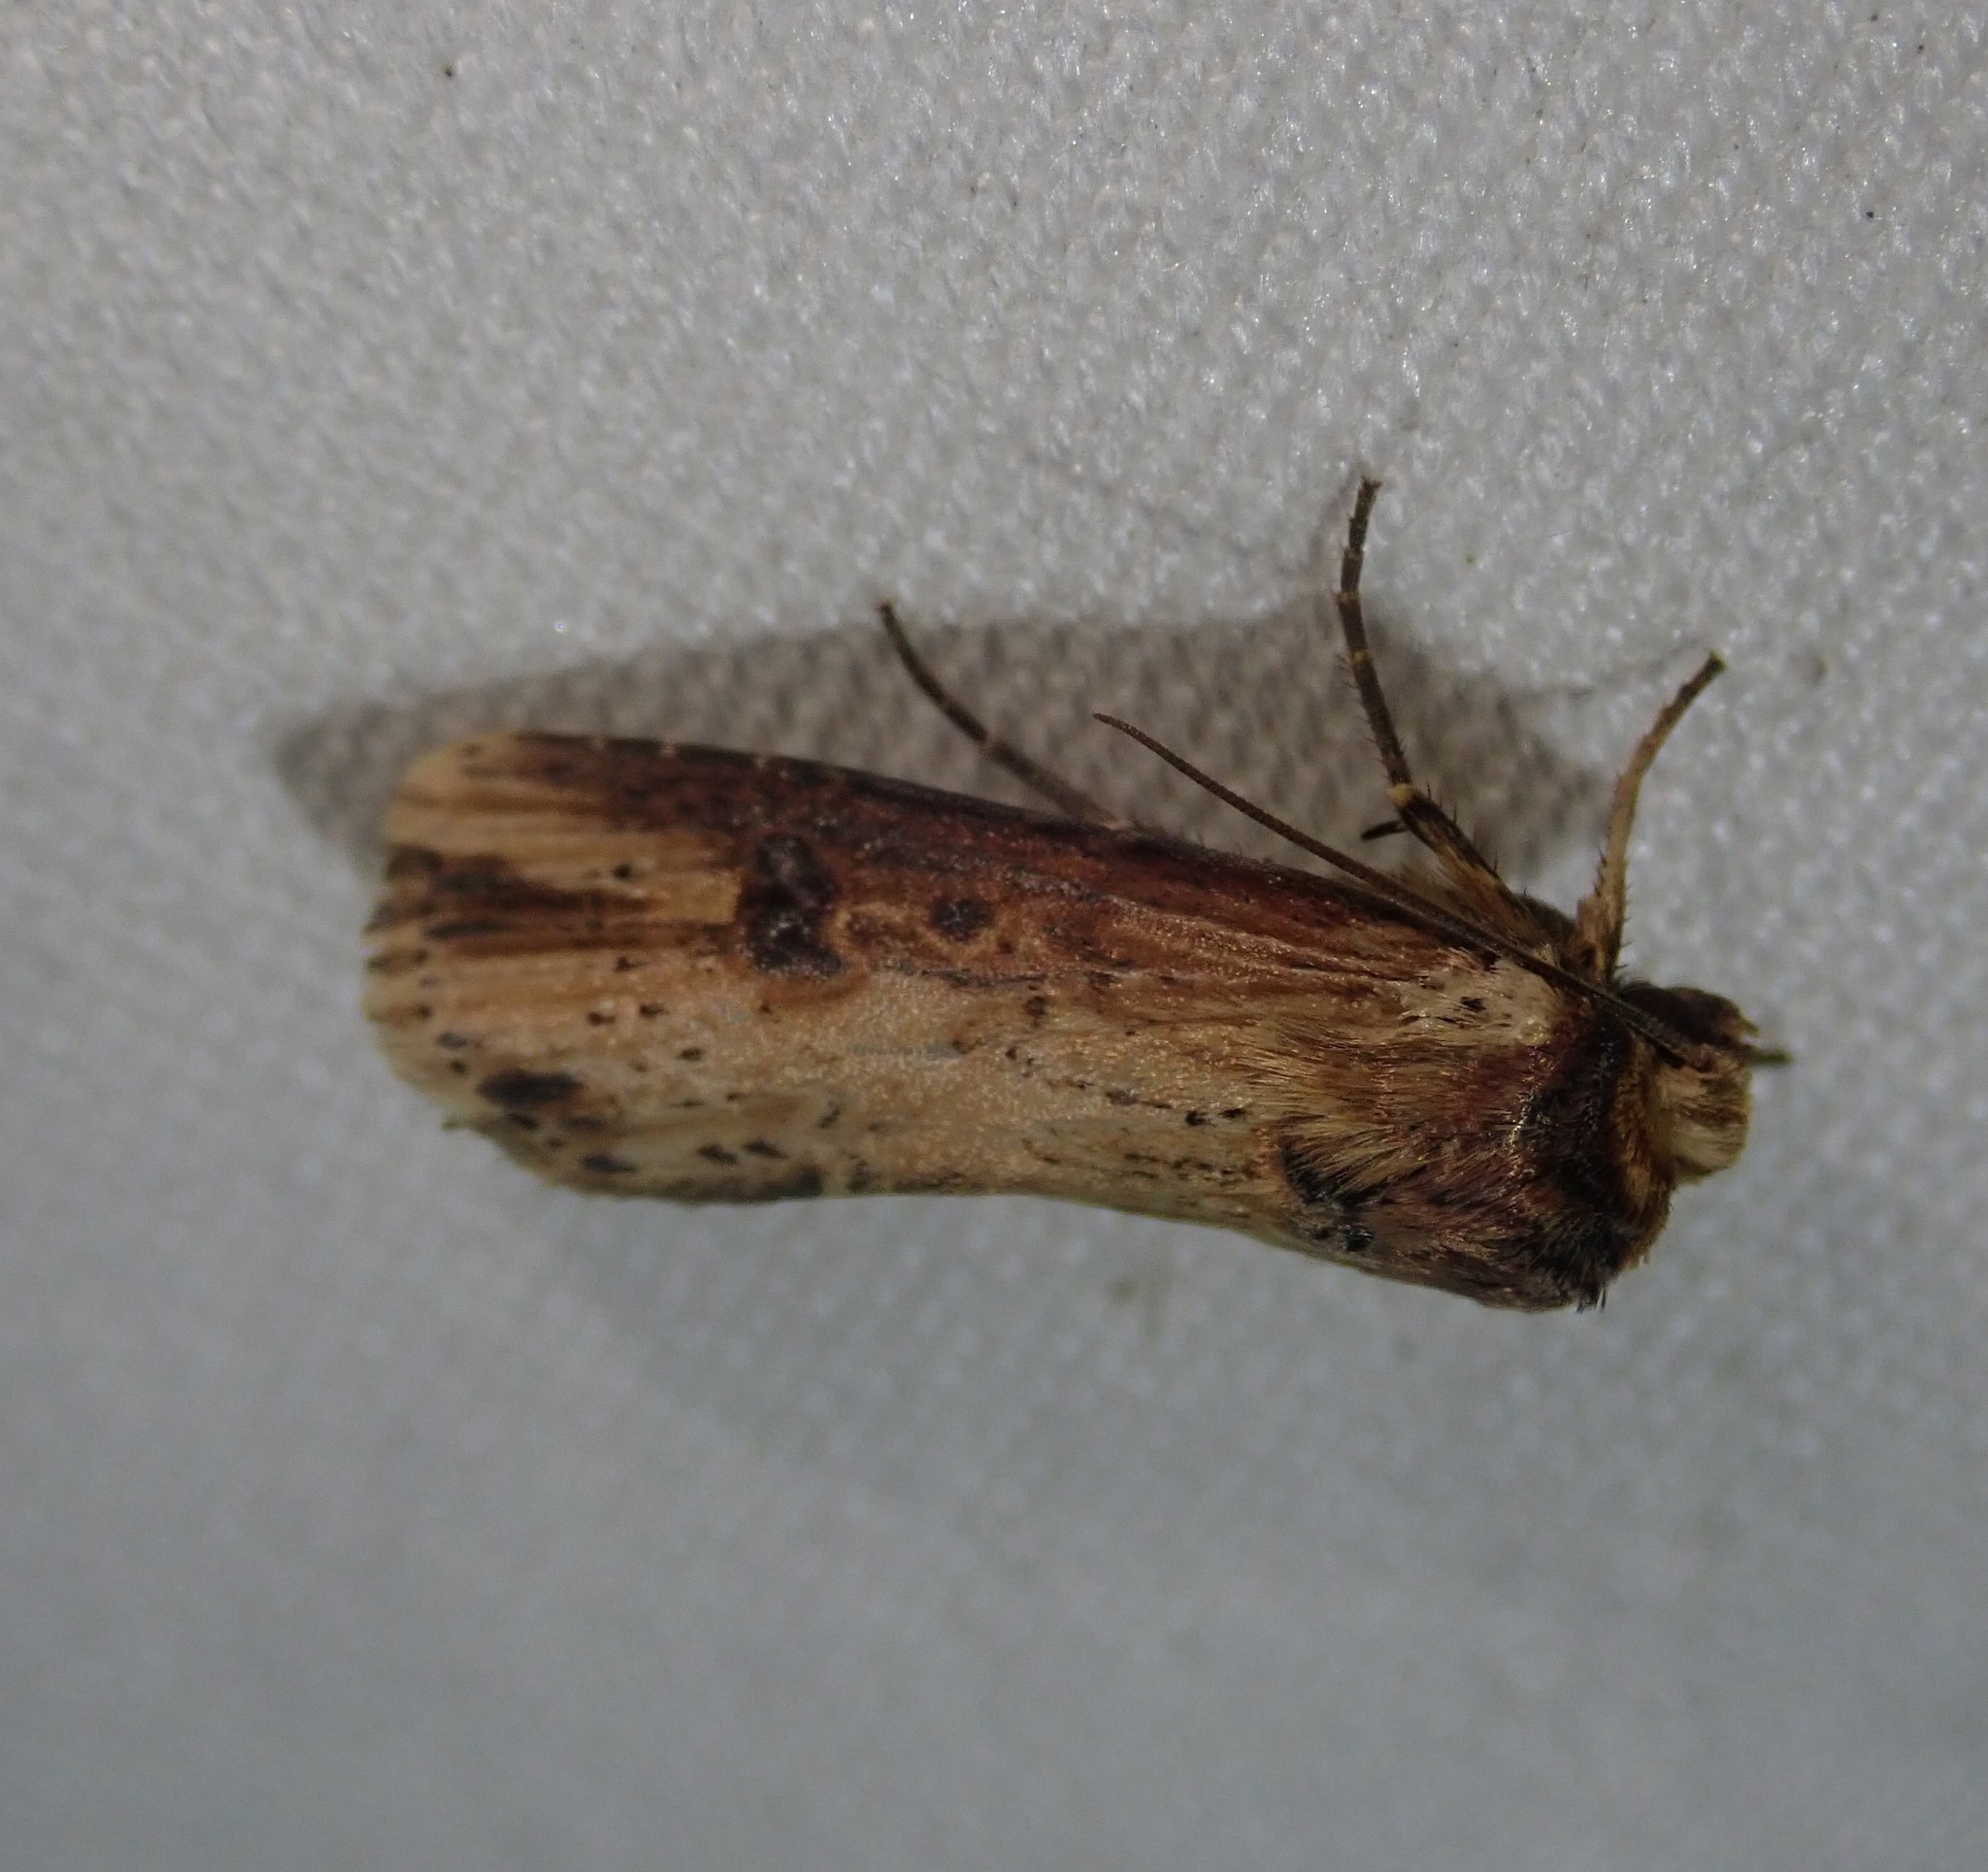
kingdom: Animalia
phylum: Arthropoda
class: Insecta
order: Lepidoptera
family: Noctuidae
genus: Axylia
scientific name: Axylia putris
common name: Flame
